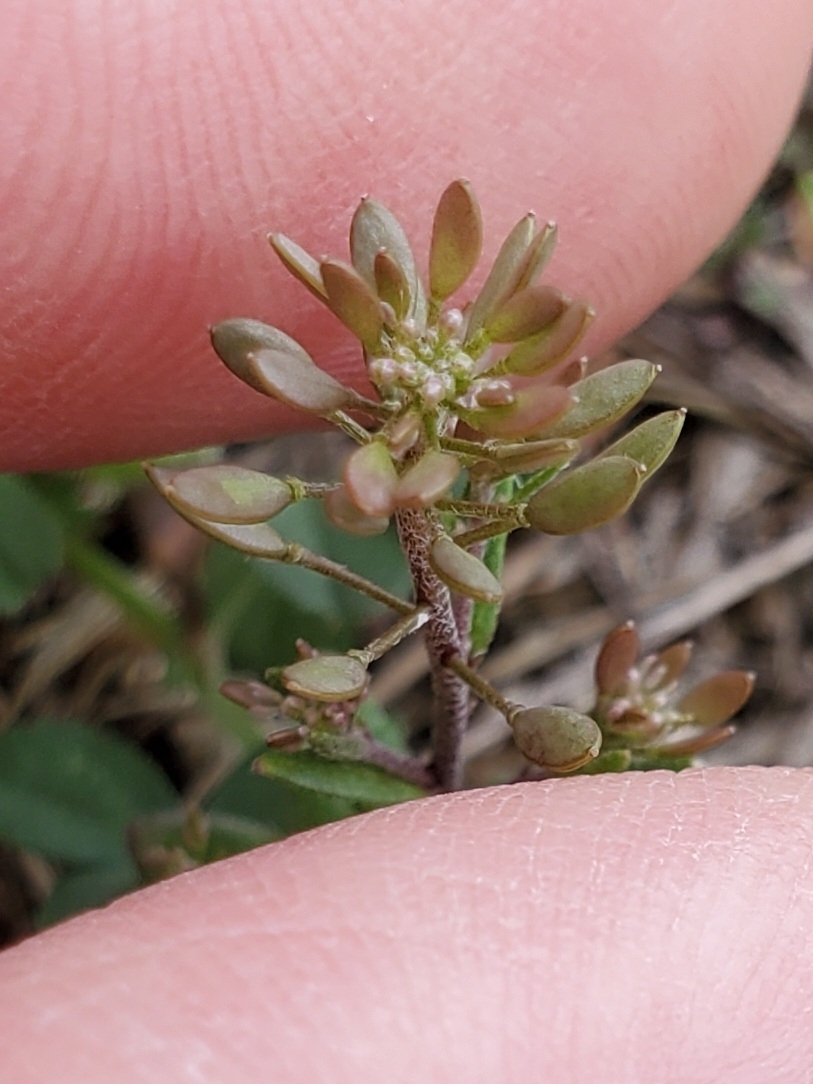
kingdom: Plantae
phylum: Tracheophyta
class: Magnoliopsida
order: Brassicales
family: Brassicaceae
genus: Abdra
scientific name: Abdra brachycarpa
